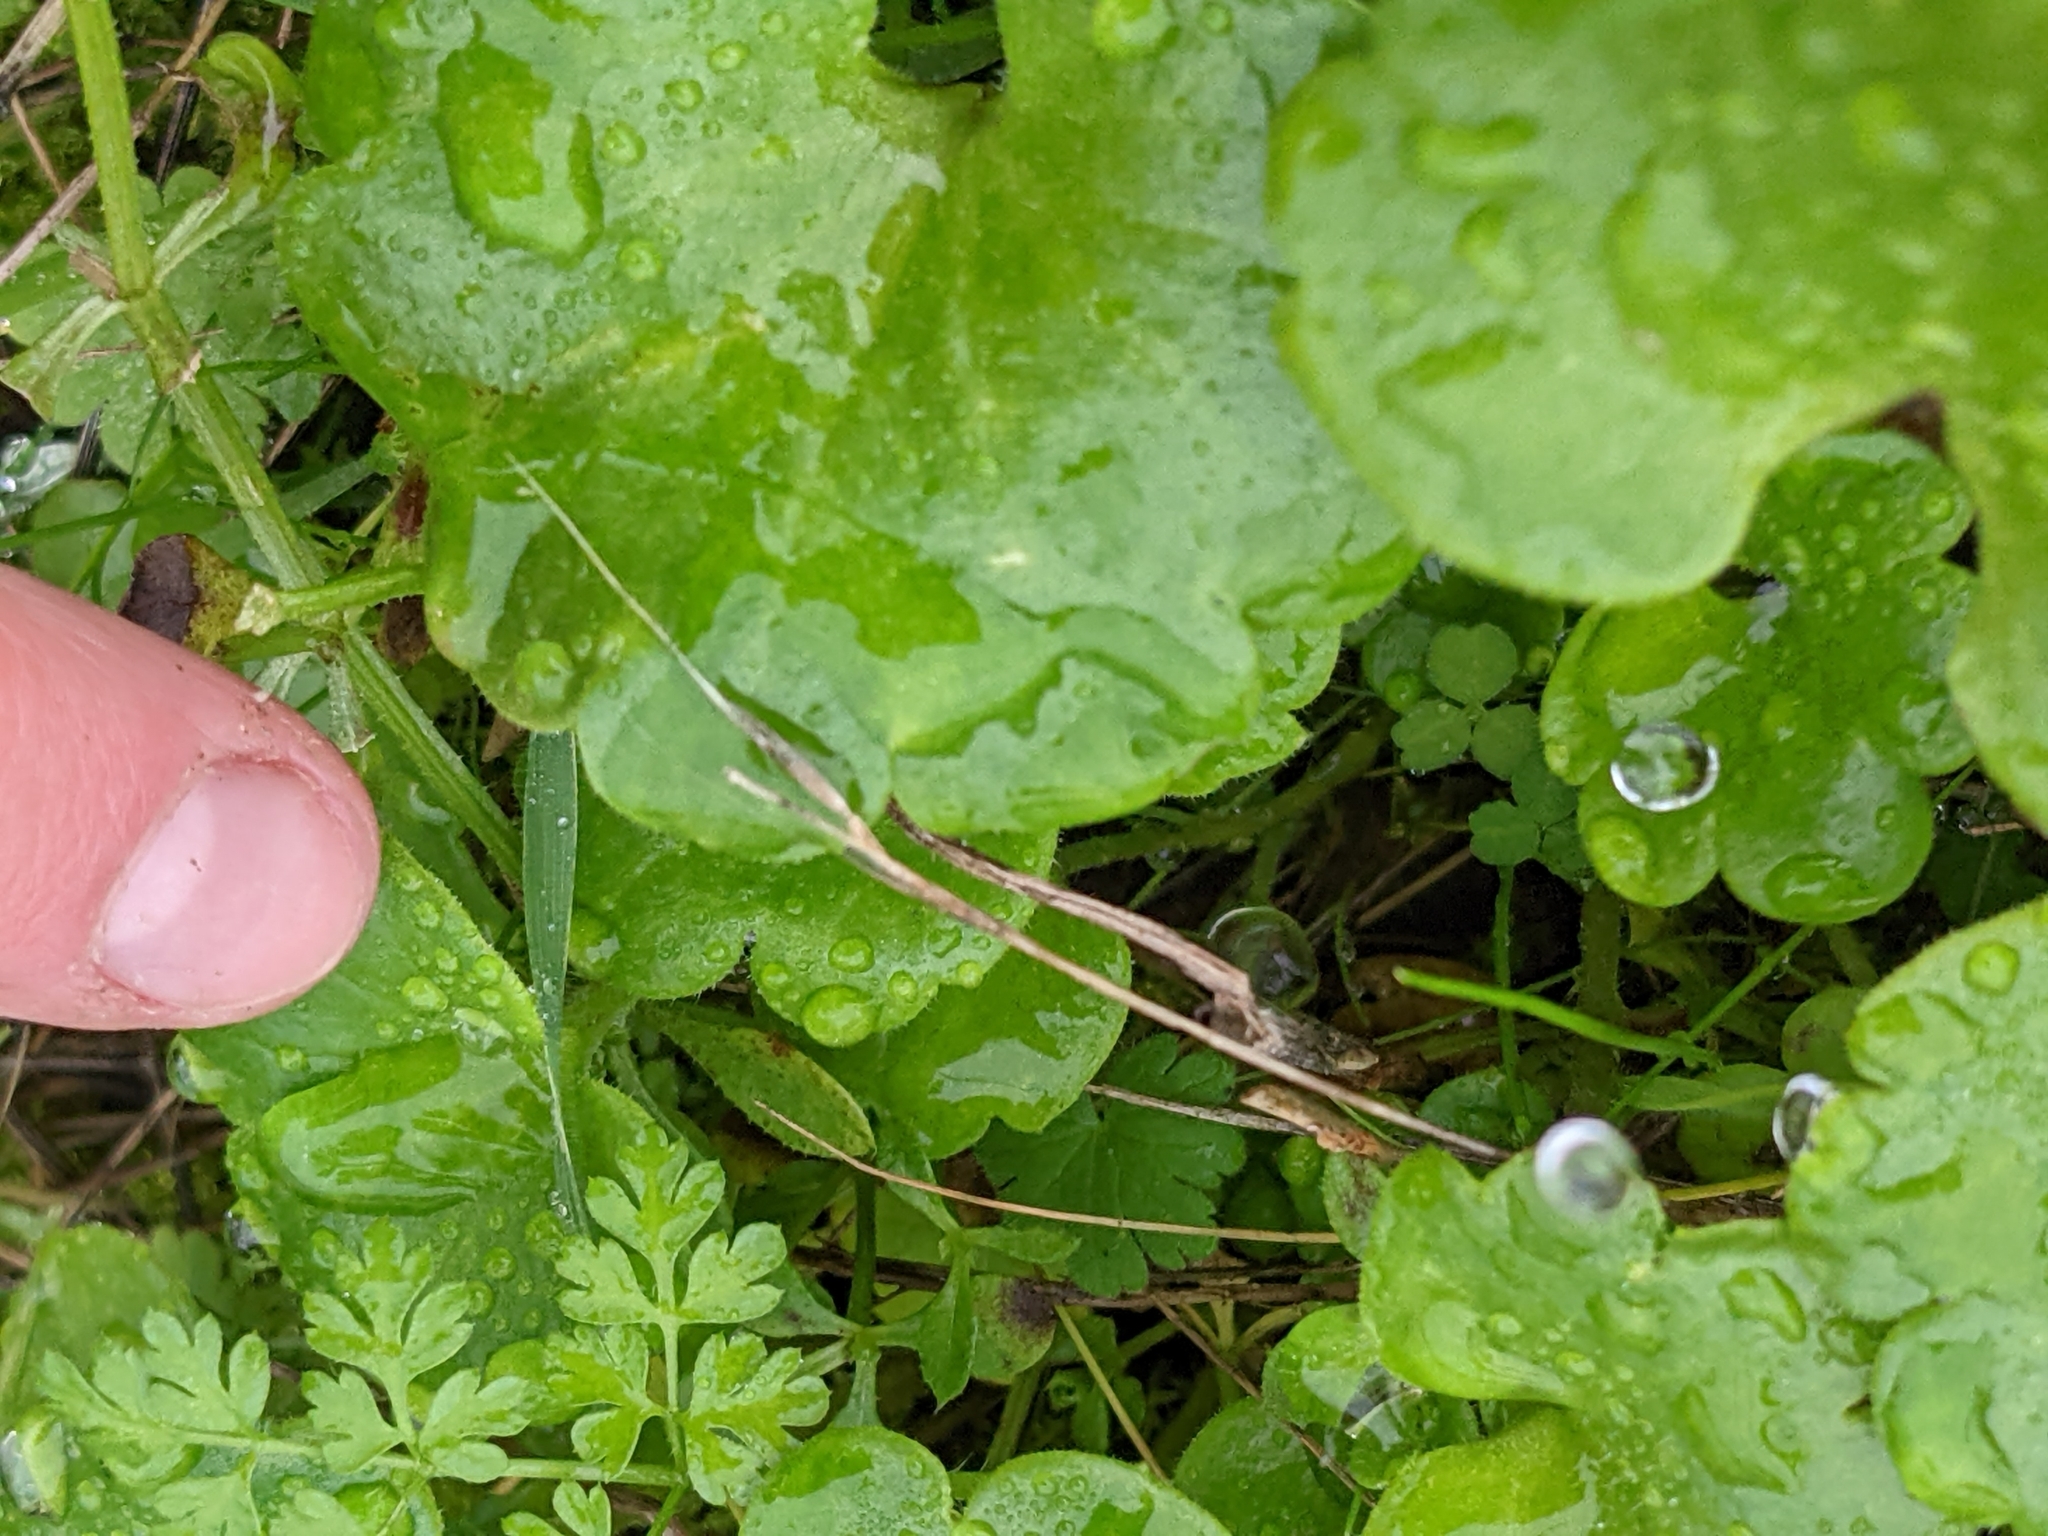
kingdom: Plantae
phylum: Tracheophyta
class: Magnoliopsida
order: Boraginales
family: Hydrophyllaceae
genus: Romanzoffia
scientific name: Romanzoffia tracyi
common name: Tracy's mistmaid
